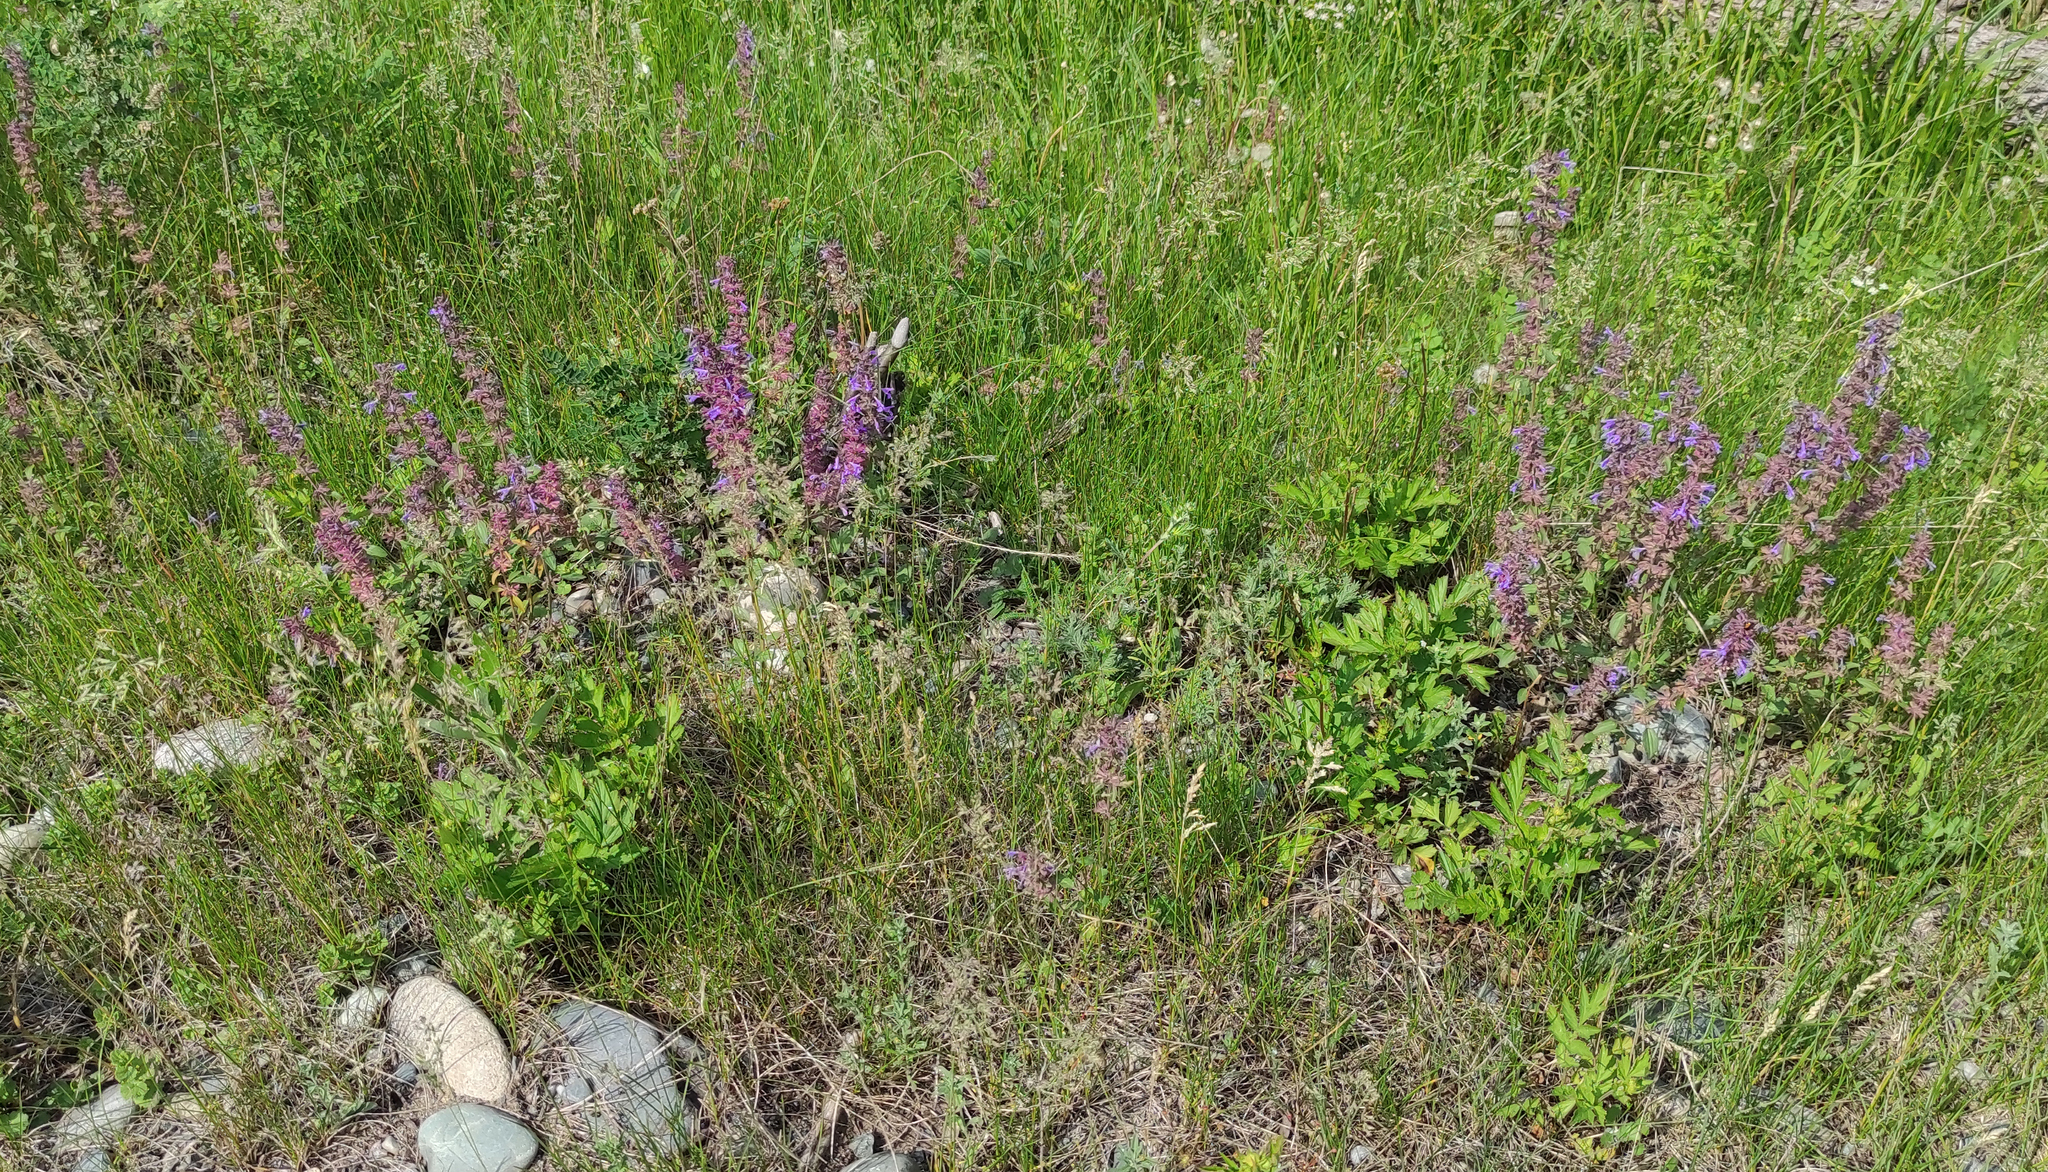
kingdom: Plantae
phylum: Tracheophyta
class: Magnoliopsida
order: Lamiales
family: Lamiaceae
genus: Dracocephalum
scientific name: Dracocephalum nutans
